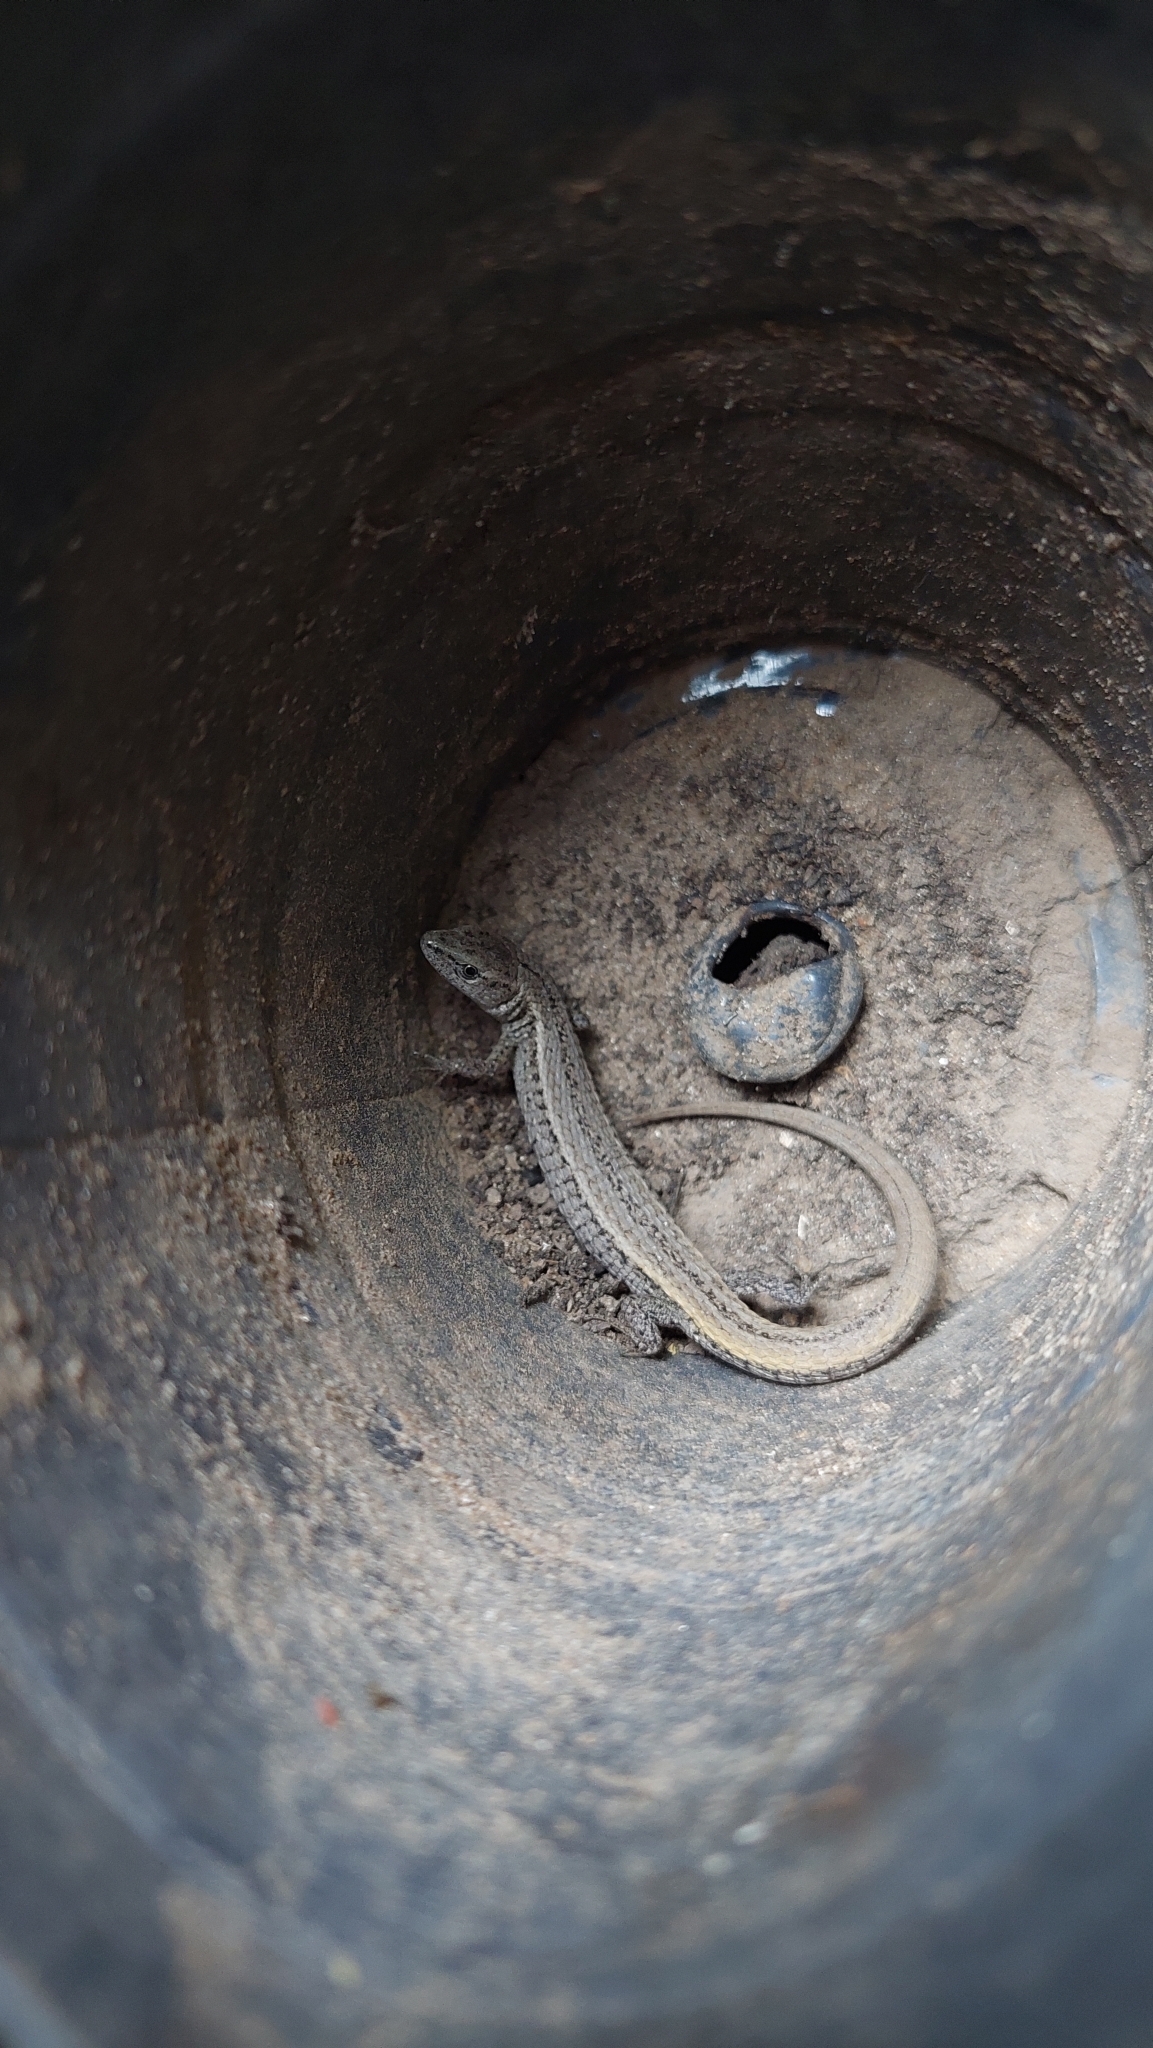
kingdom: Animalia
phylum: Chordata
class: Squamata
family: Gymnophthalmidae
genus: Cercosaura
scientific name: Cercosaura schreibersii
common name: Schreibers' many-fingered teiid
